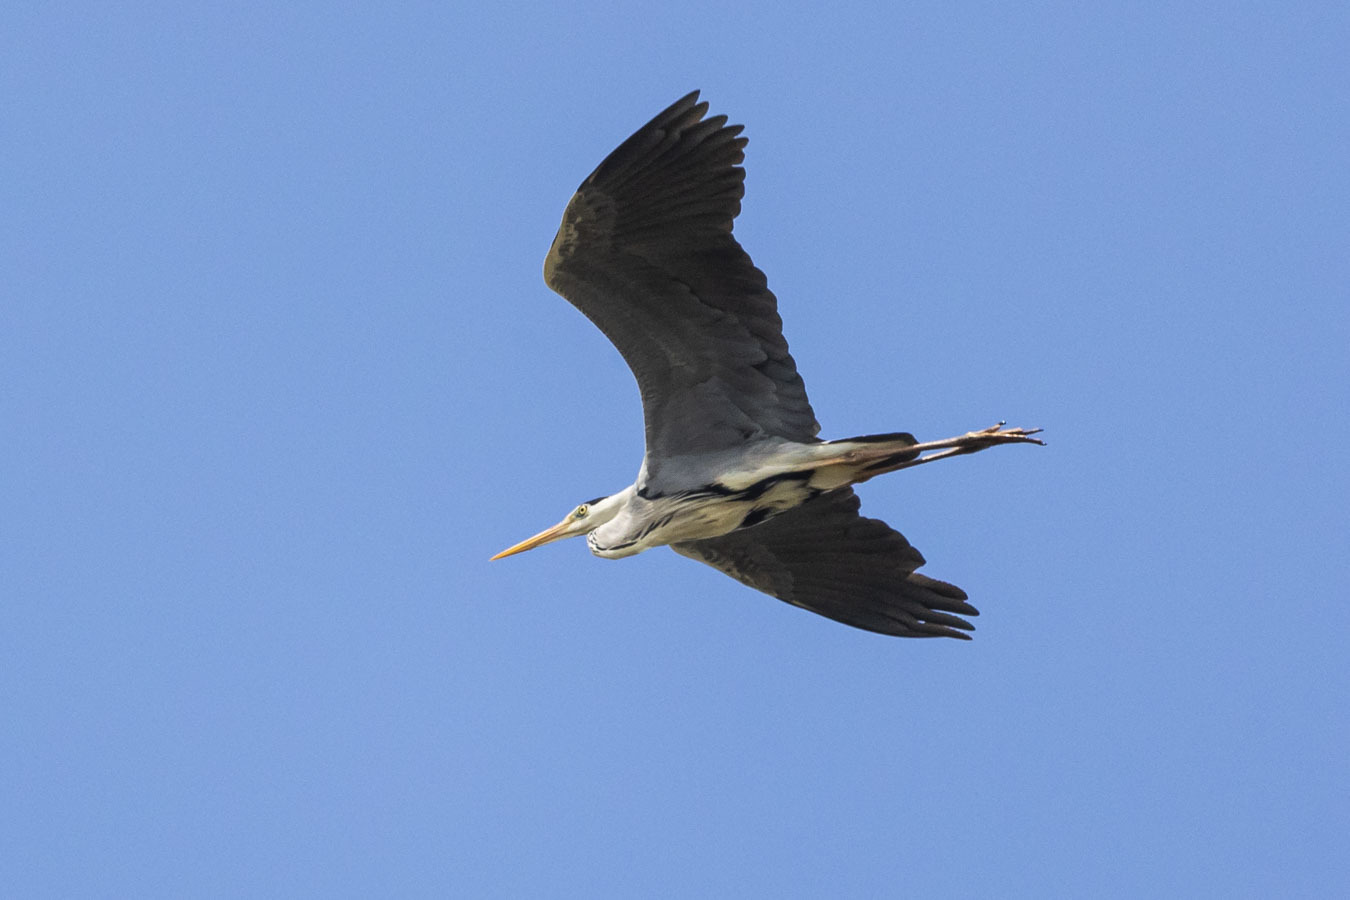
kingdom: Animalia
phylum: Chordata
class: Aves
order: Pelecaniformes
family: Ardeidae
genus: Ardea
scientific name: Ardea cinerea
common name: Grey heron
